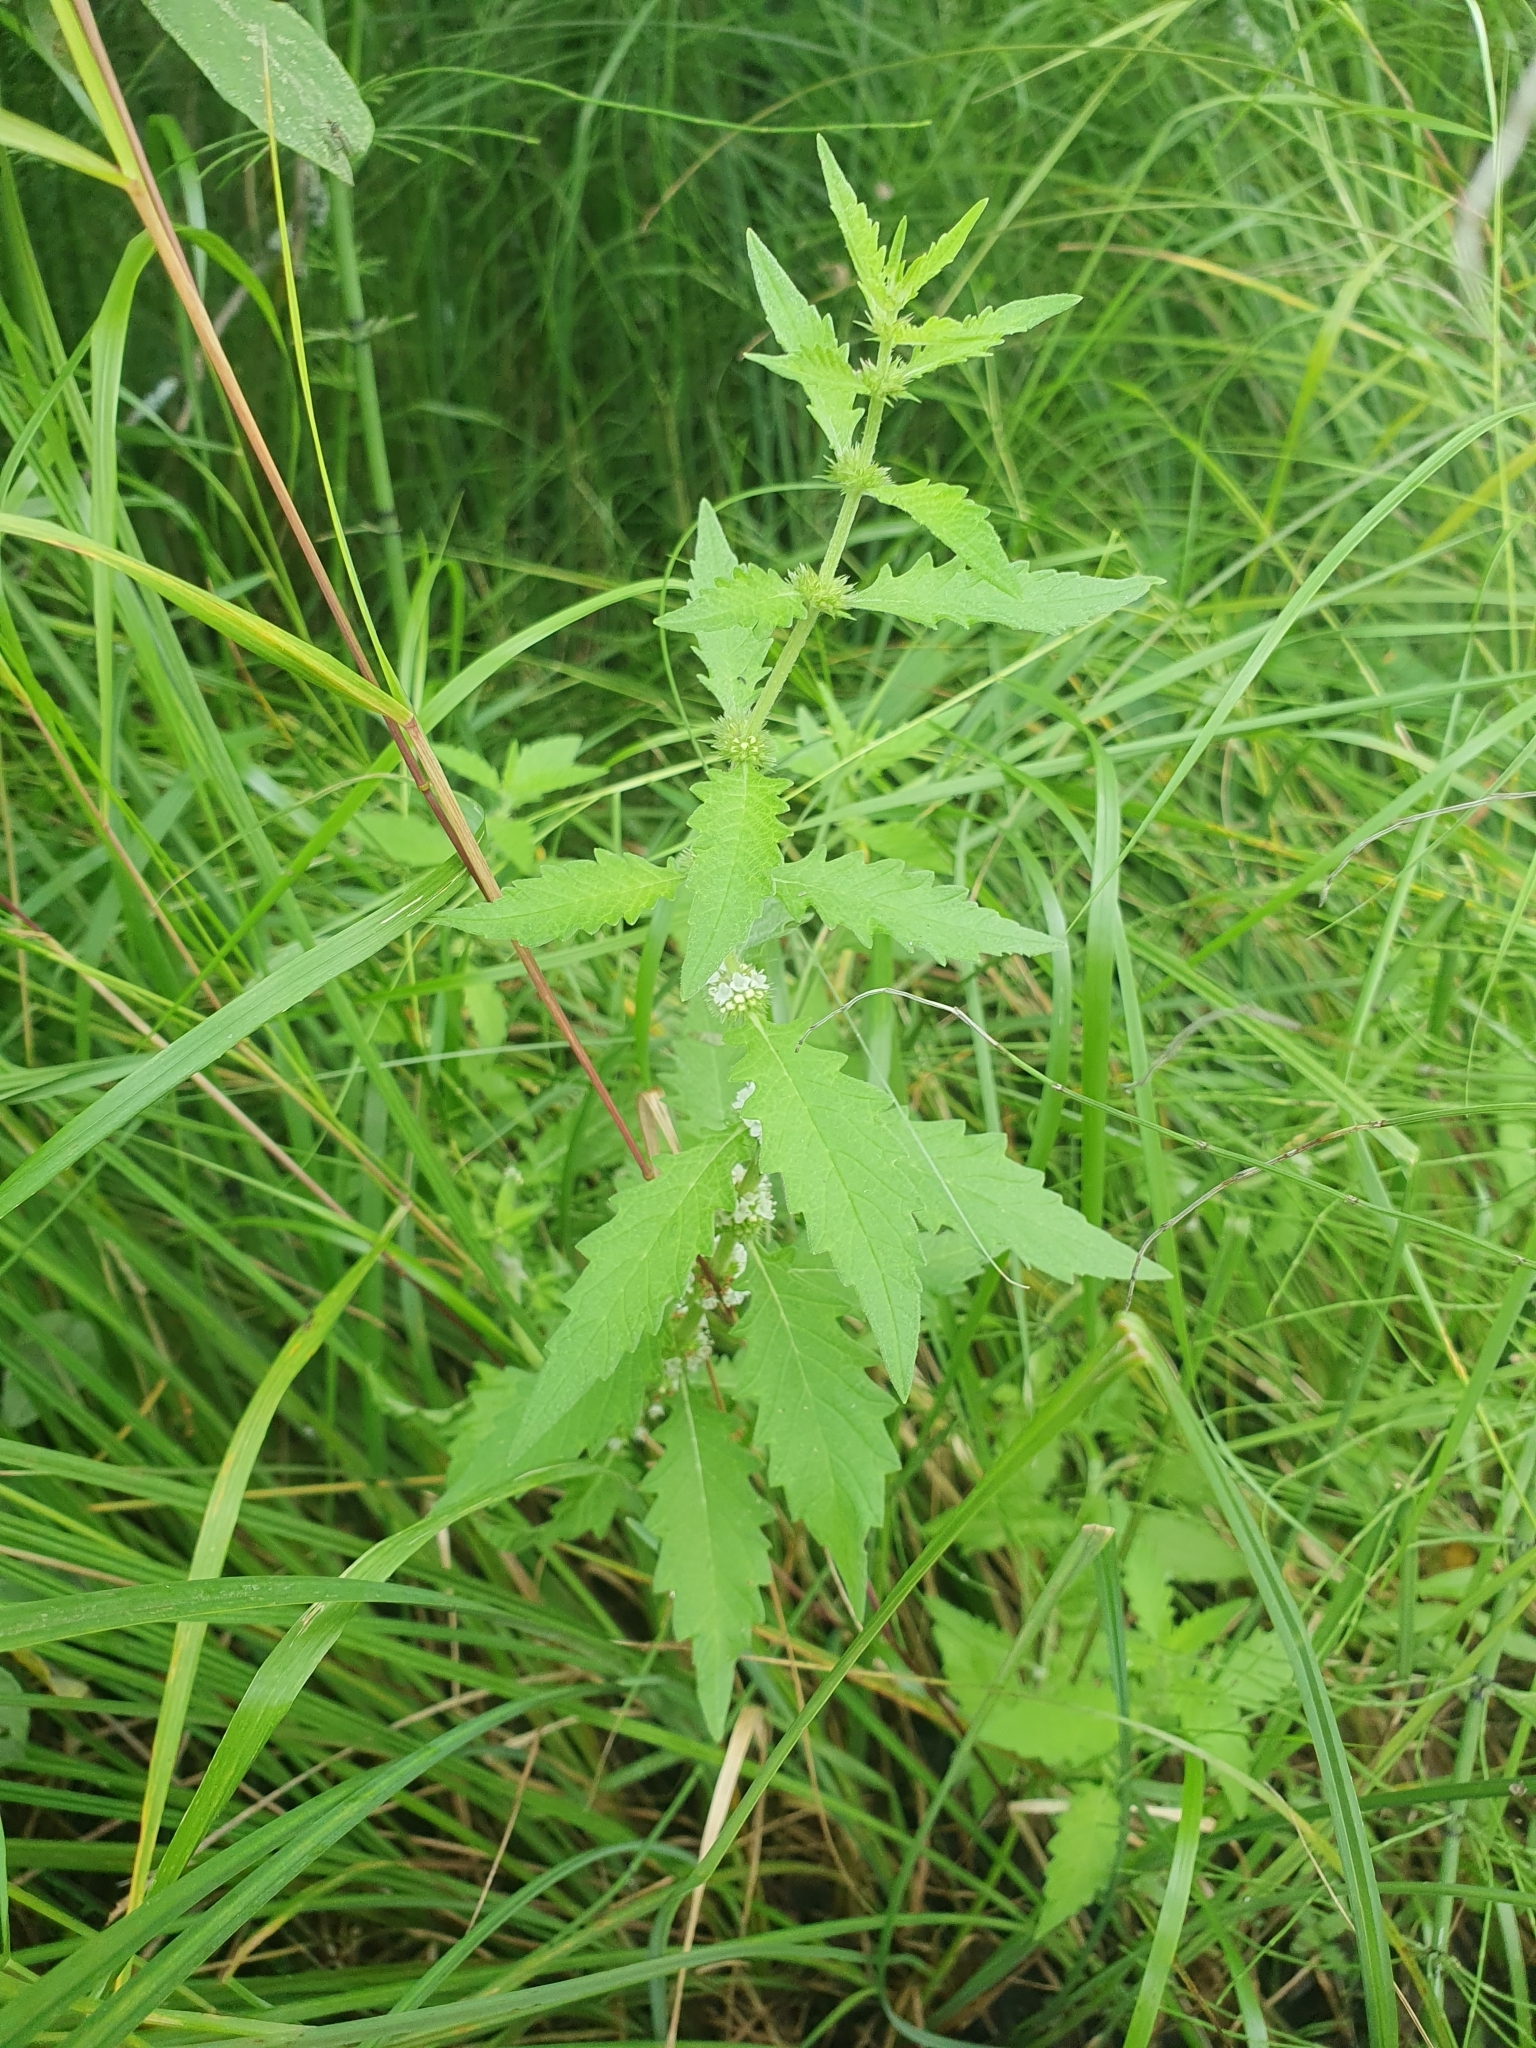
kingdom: Plantae
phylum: Tracheophyta
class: Magnoliopsida
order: Lamiales
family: Lamiaceae
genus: Lycopus
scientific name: Lycopus europaeus
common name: European bugleweed
